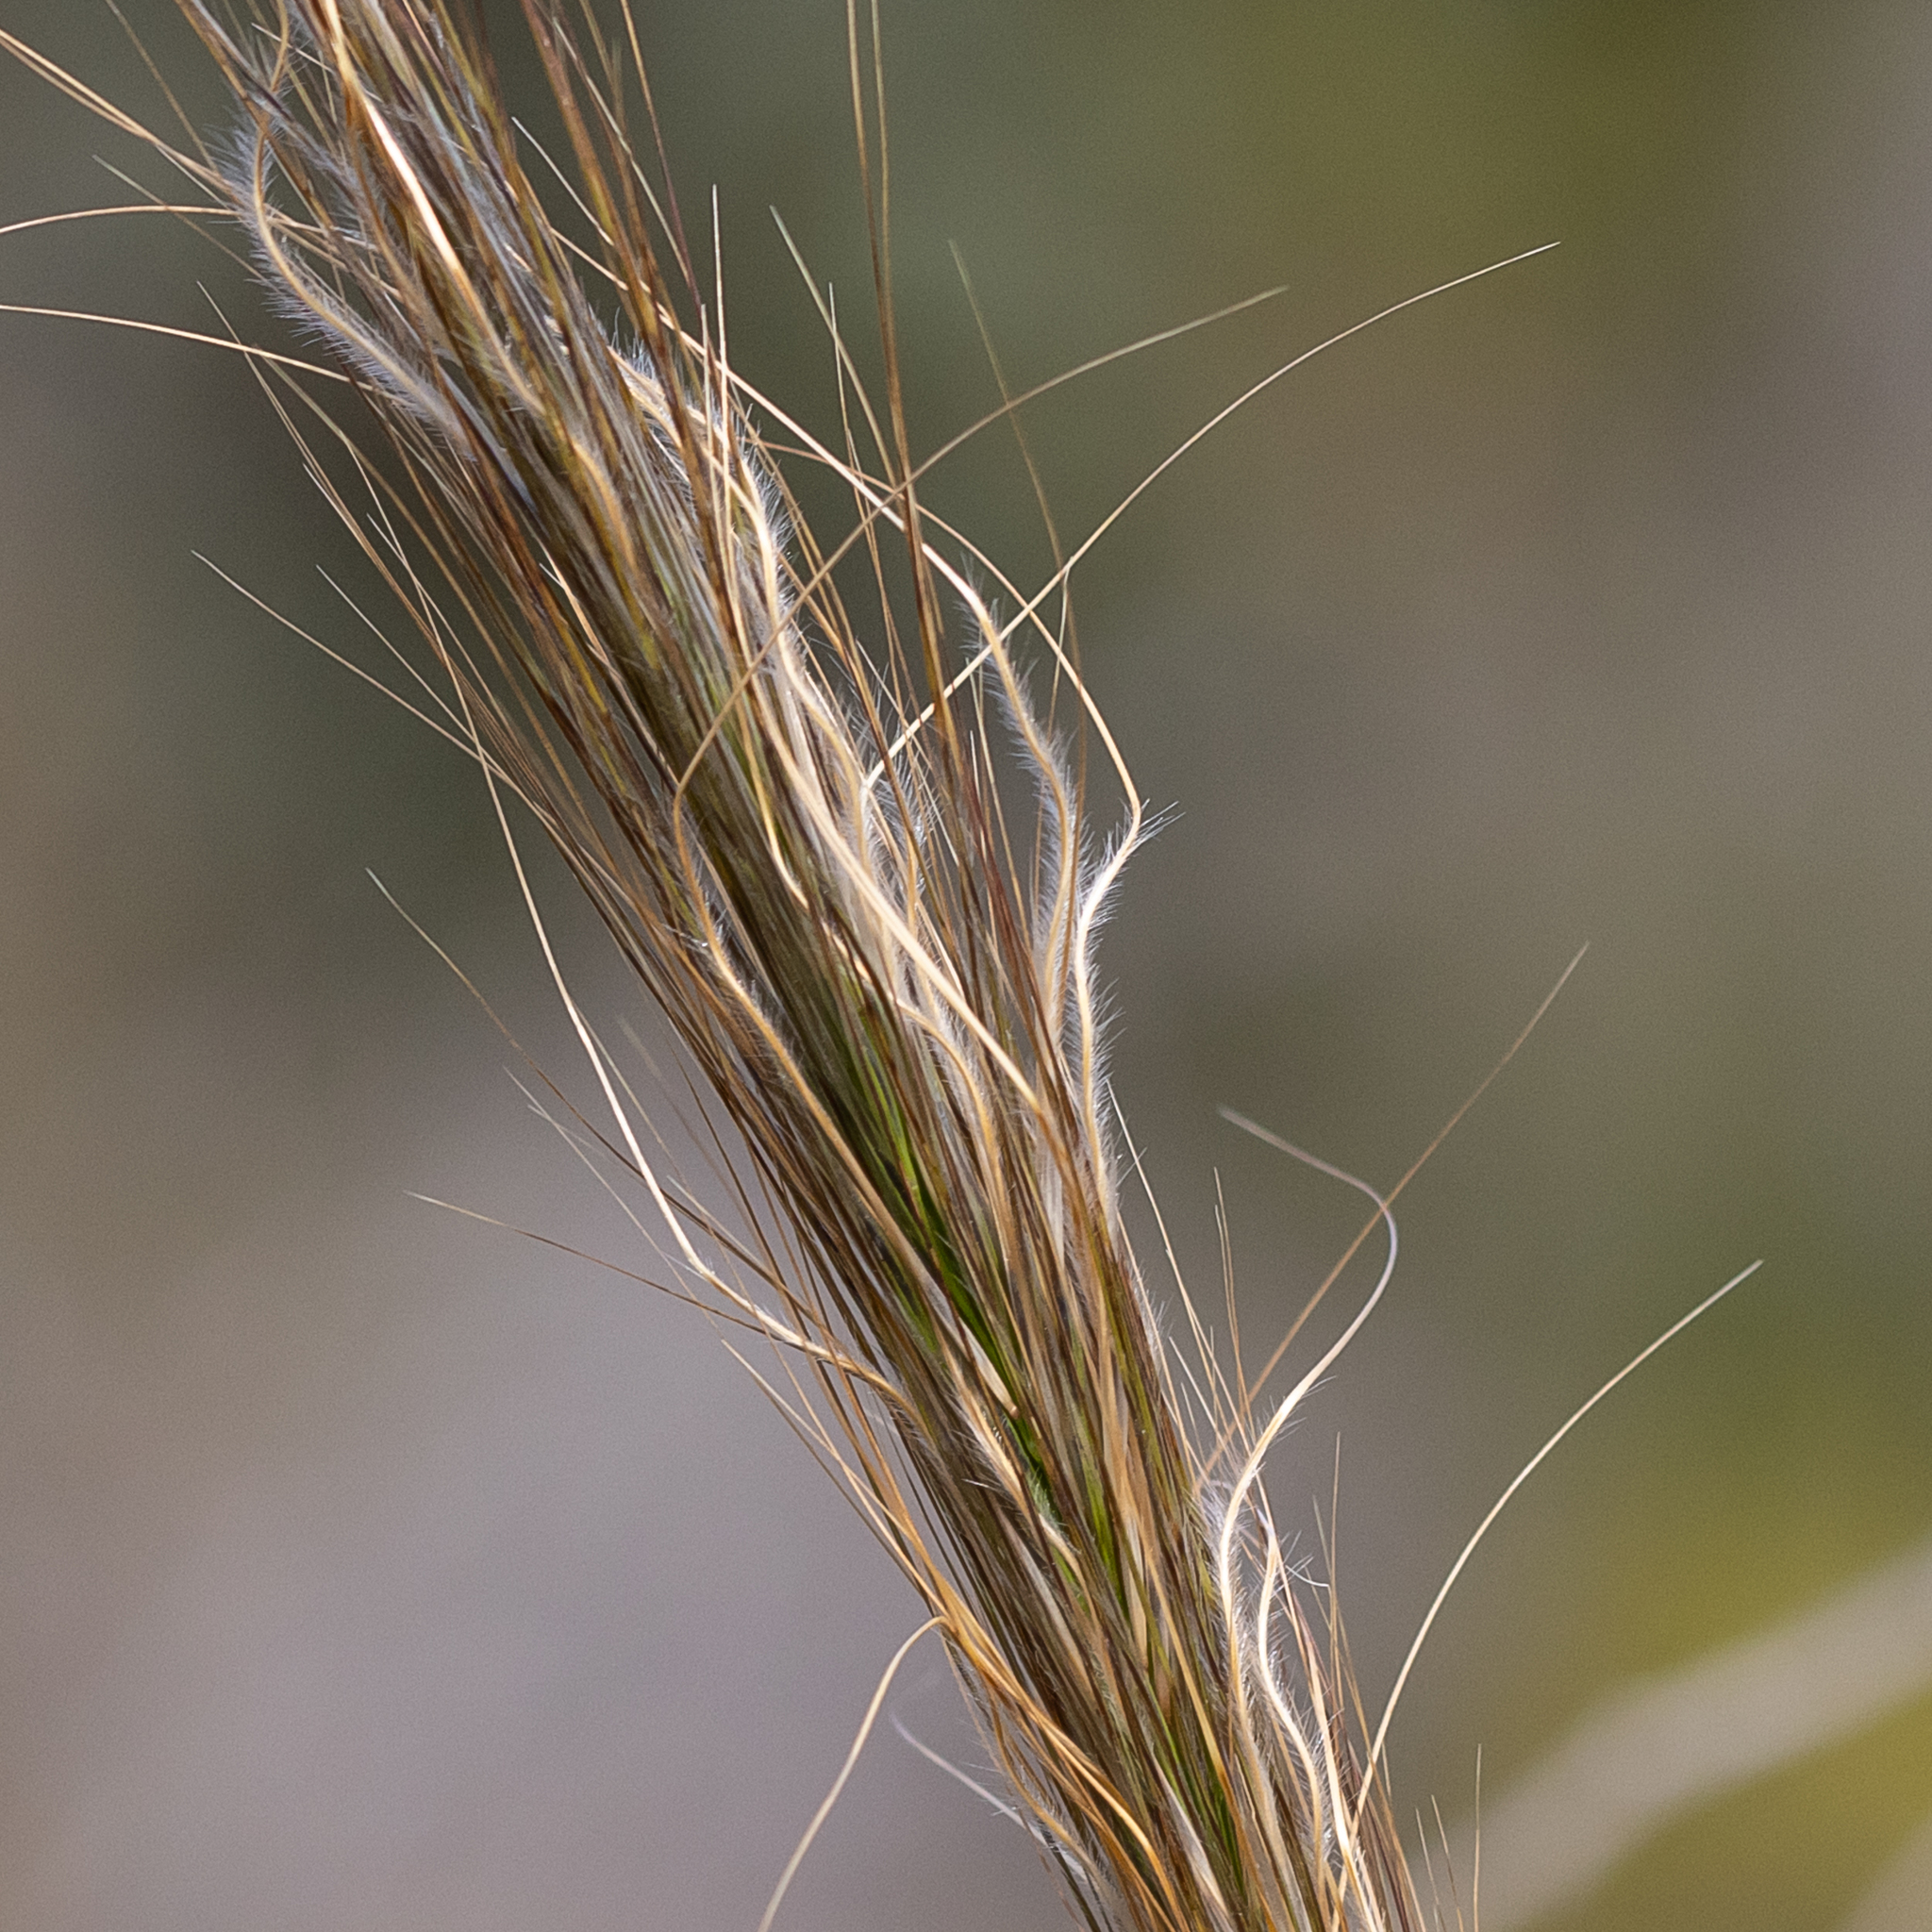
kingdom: Plantae
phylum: Tracheophyta
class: Liliopsida
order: Poales
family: Poaceae
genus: Austrostipa
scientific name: Austrostipa mollis
